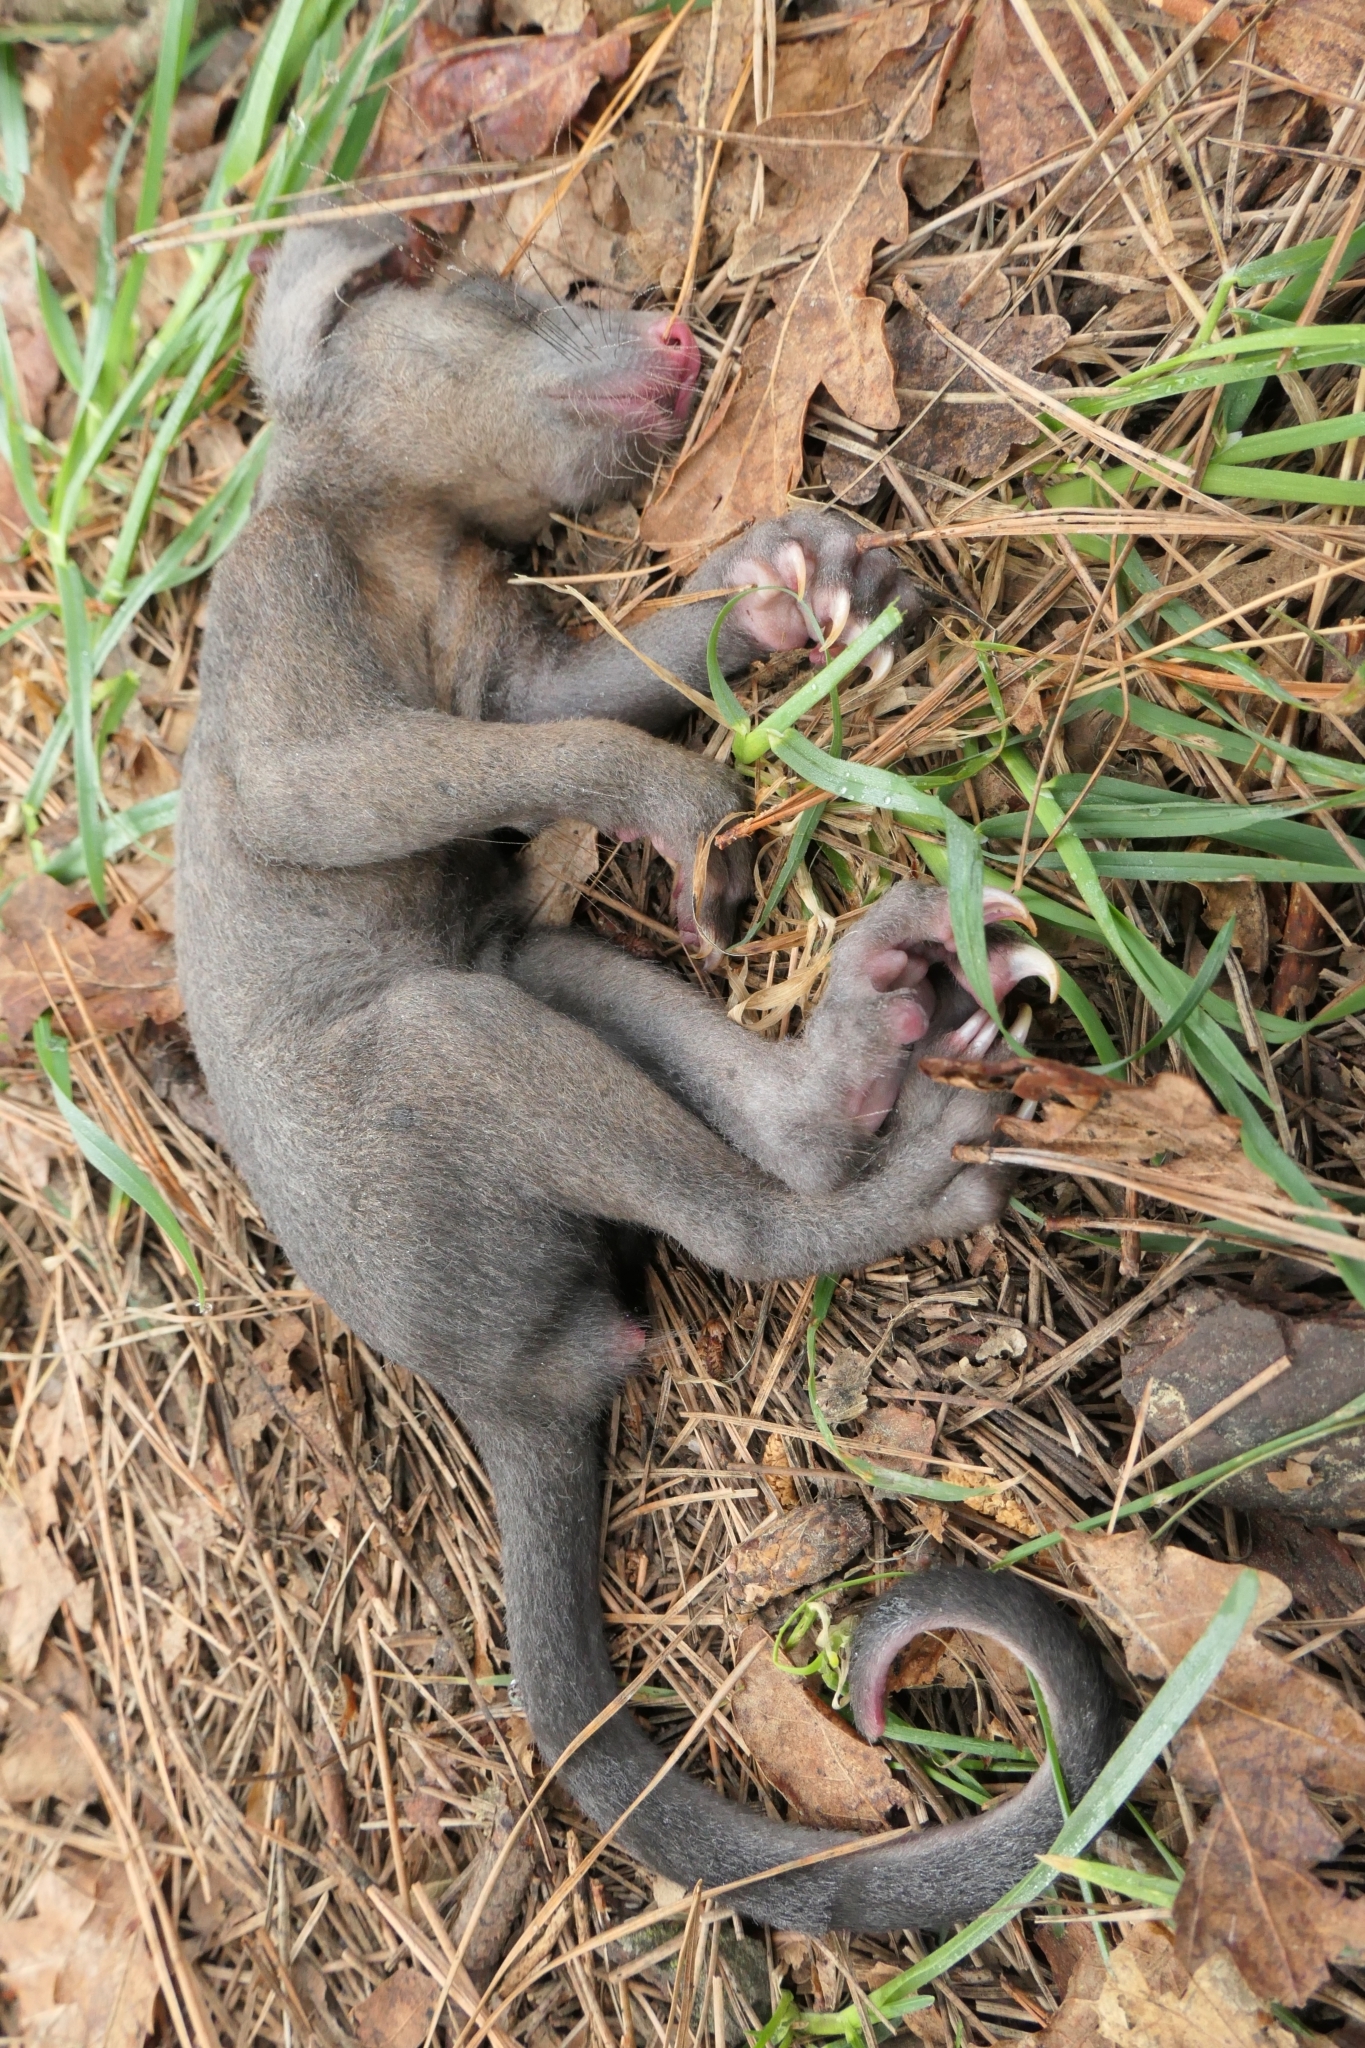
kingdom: Animalia
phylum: Chordata
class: Mammalia
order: Diprotodontia
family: Phalangeridae
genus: Trichosurus
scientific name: Trichosurus vulpecula
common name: Common brushtail
